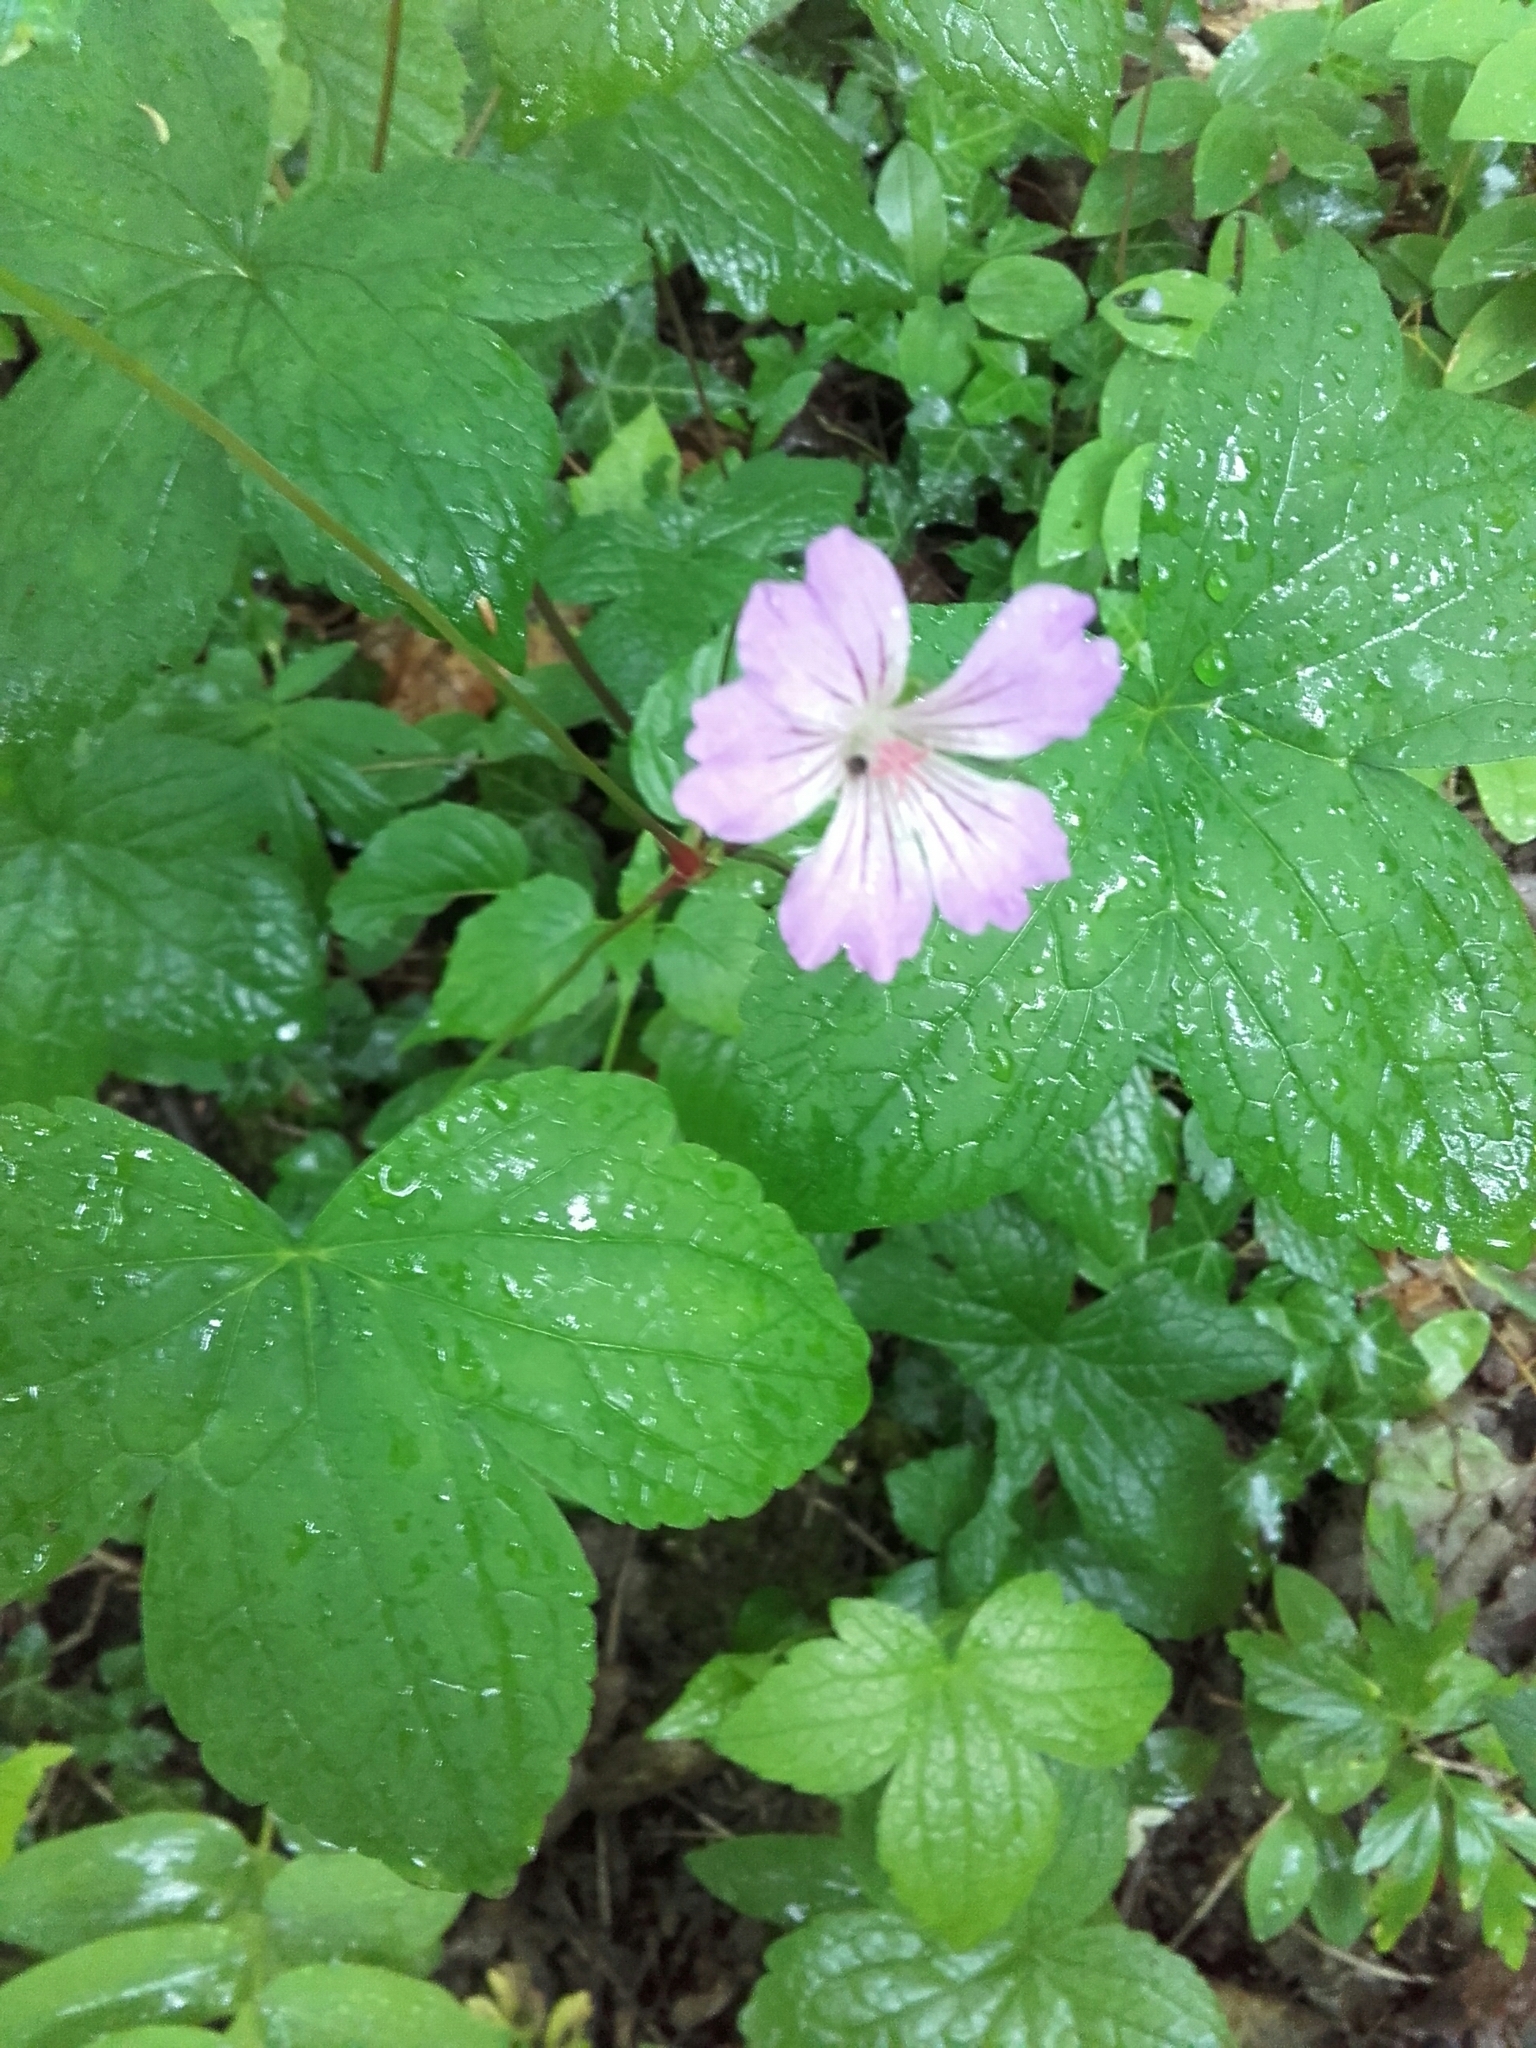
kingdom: Plantae
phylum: Tracheophyta
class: Magnoliopsida
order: Geraniales
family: Geraniaceae
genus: Geranium
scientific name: Geranium nodosum
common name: Knotted crane's-bill
